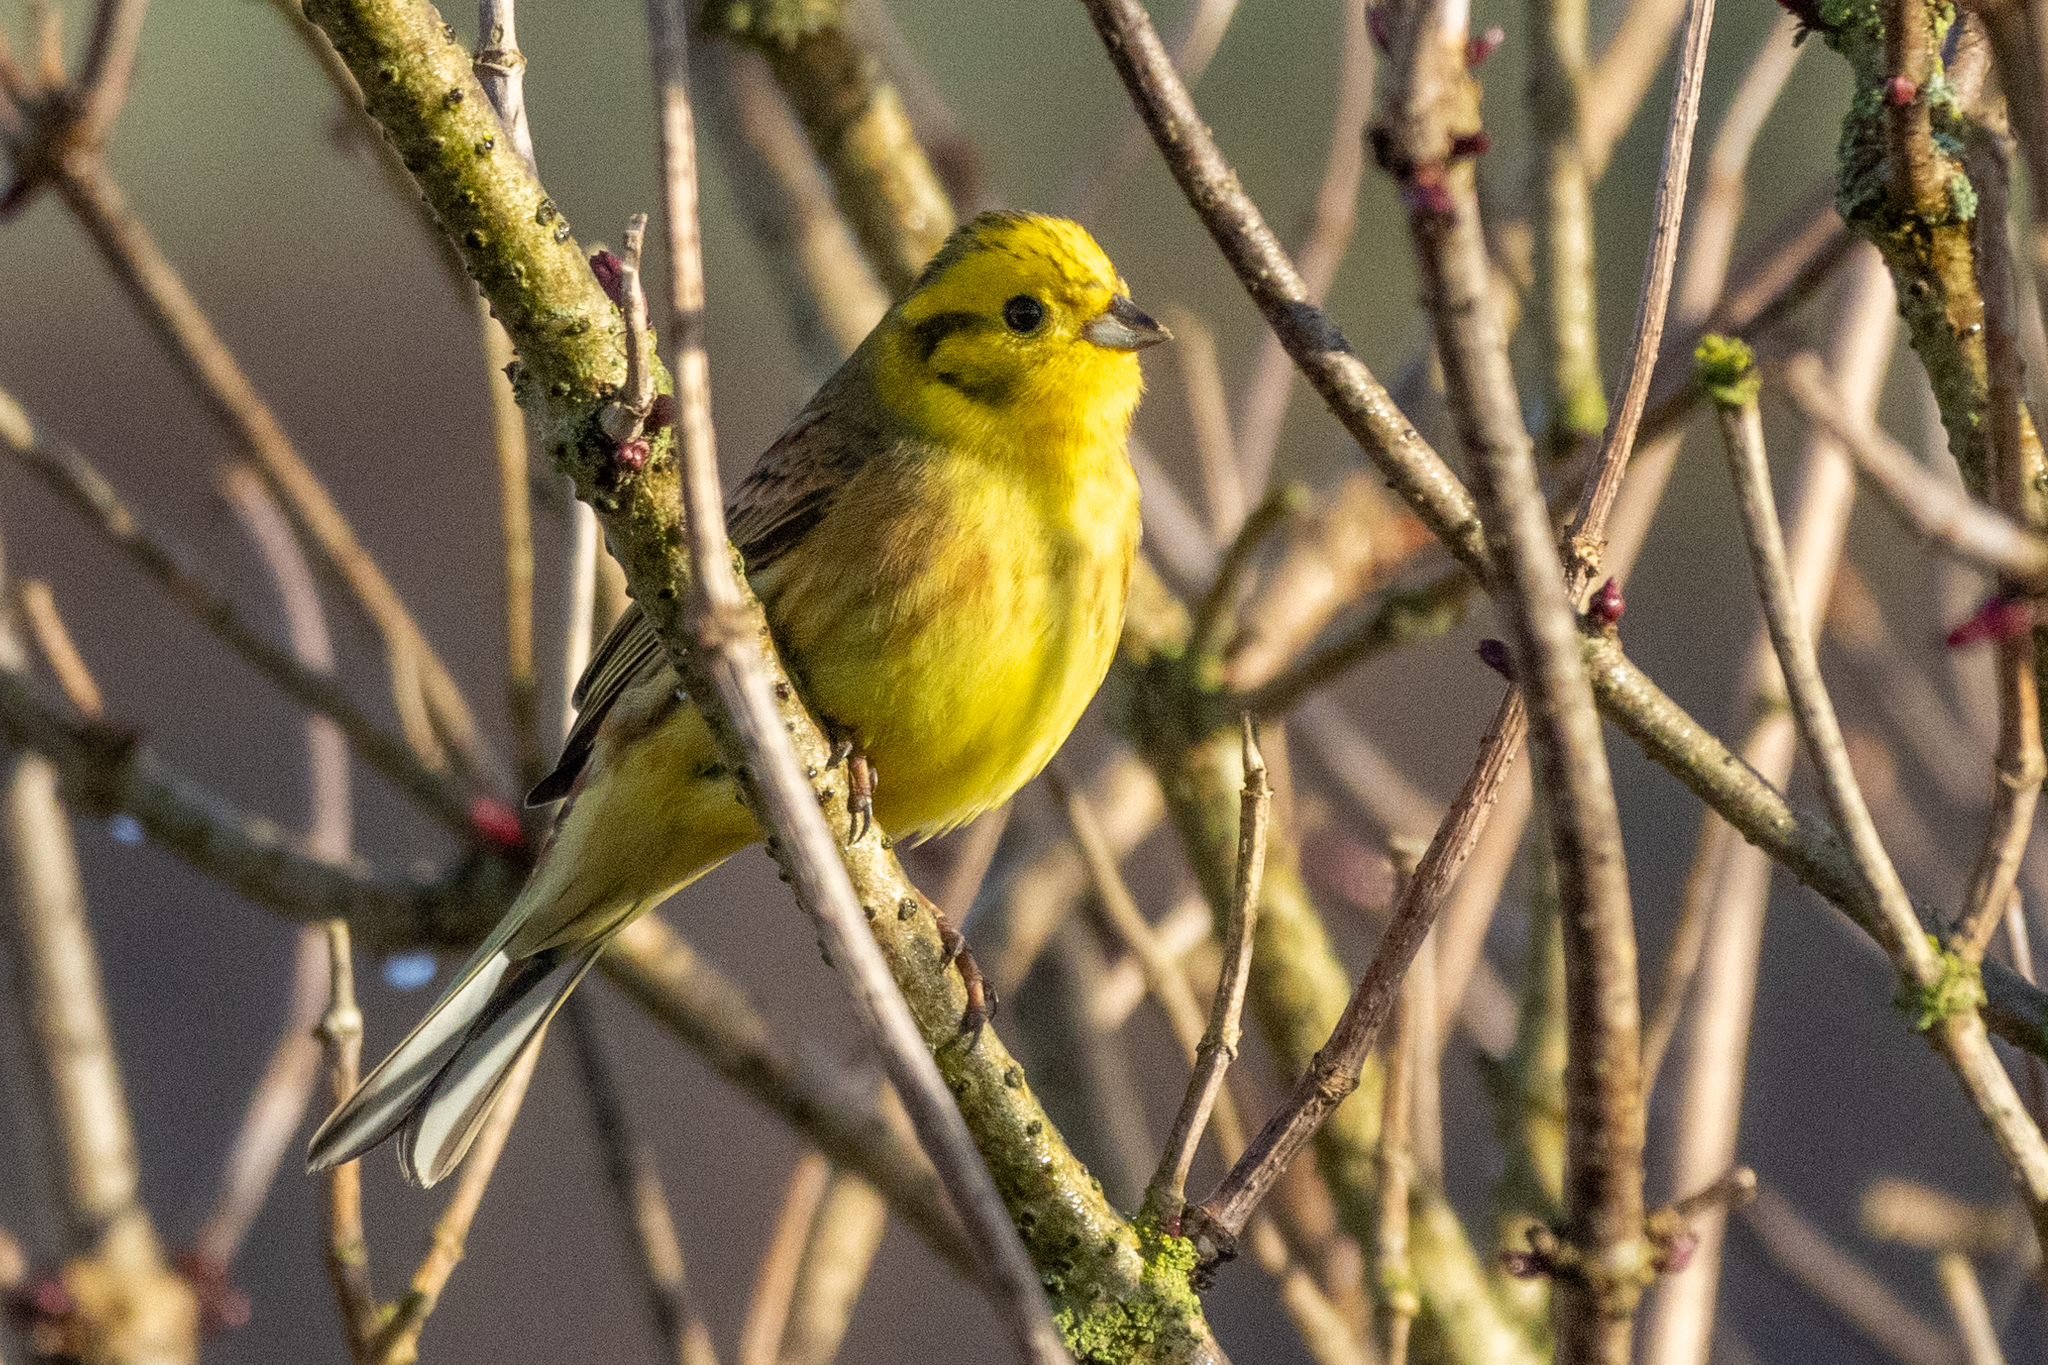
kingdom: Animalia
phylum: Chordata
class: Aves
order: Passeriformes
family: Emberizidae
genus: Emberiza
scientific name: Emberiza citrinella
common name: Yellowhammer
